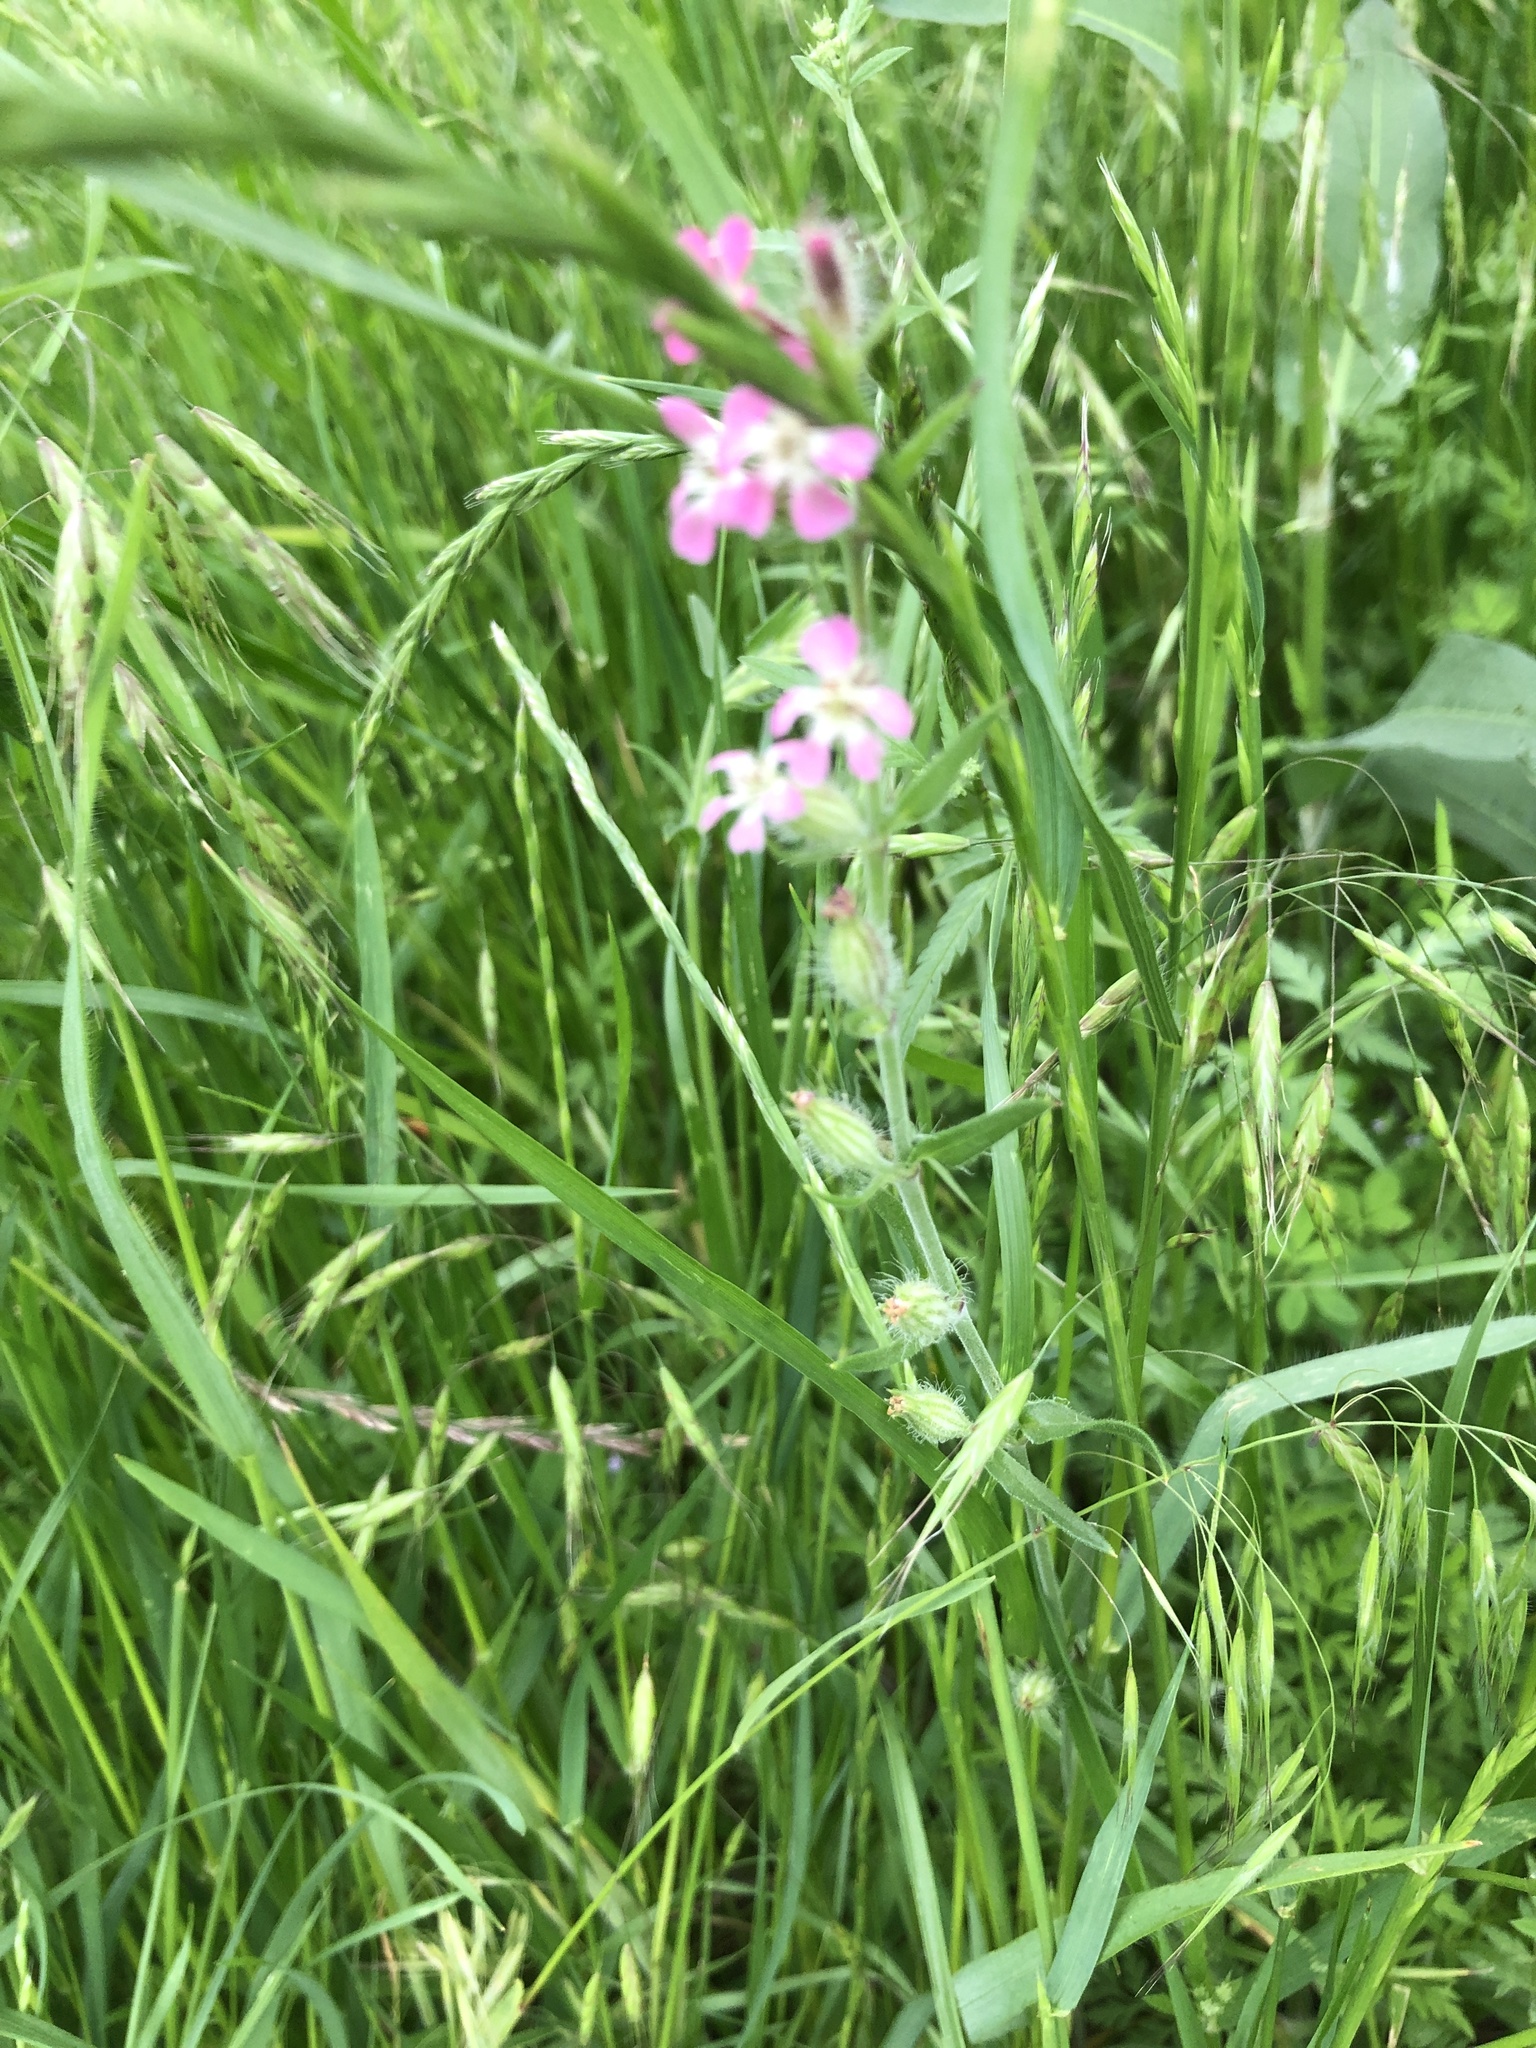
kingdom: Plantae
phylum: Tracheophyta
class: Magnoliopsida
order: Caryophyllales
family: Caryophyllaceae
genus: Silene
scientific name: Silene gallica
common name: Small-flowered catchfly
